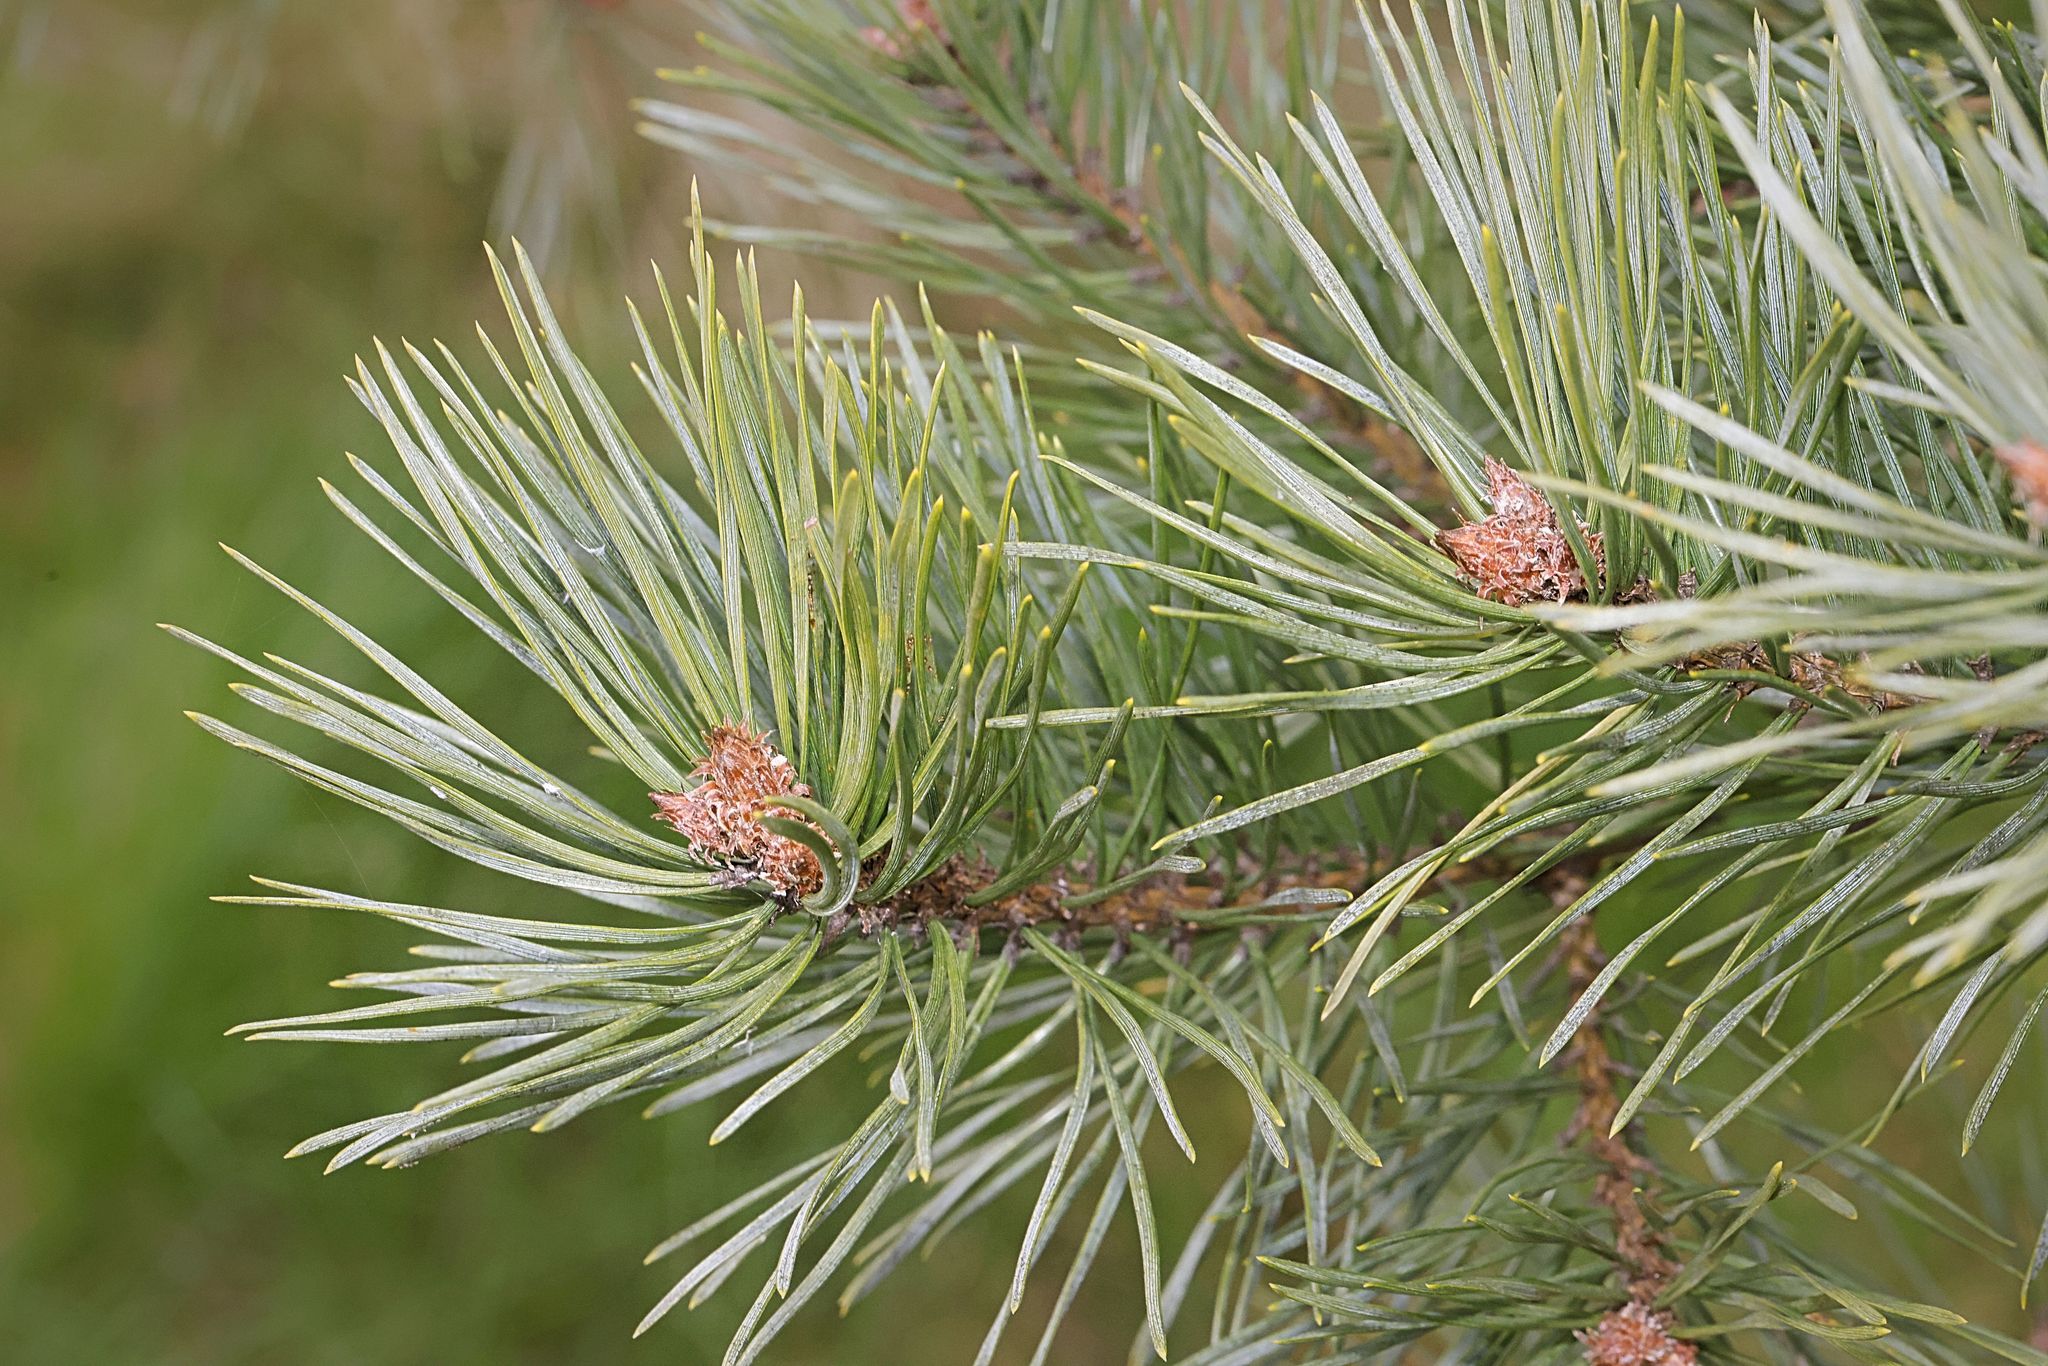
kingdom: Plantae
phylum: Tracheophyta
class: Pinopsida
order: Pinales
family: Pinaceae
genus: Pinus
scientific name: Pinus sylvestris
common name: Scots pine
